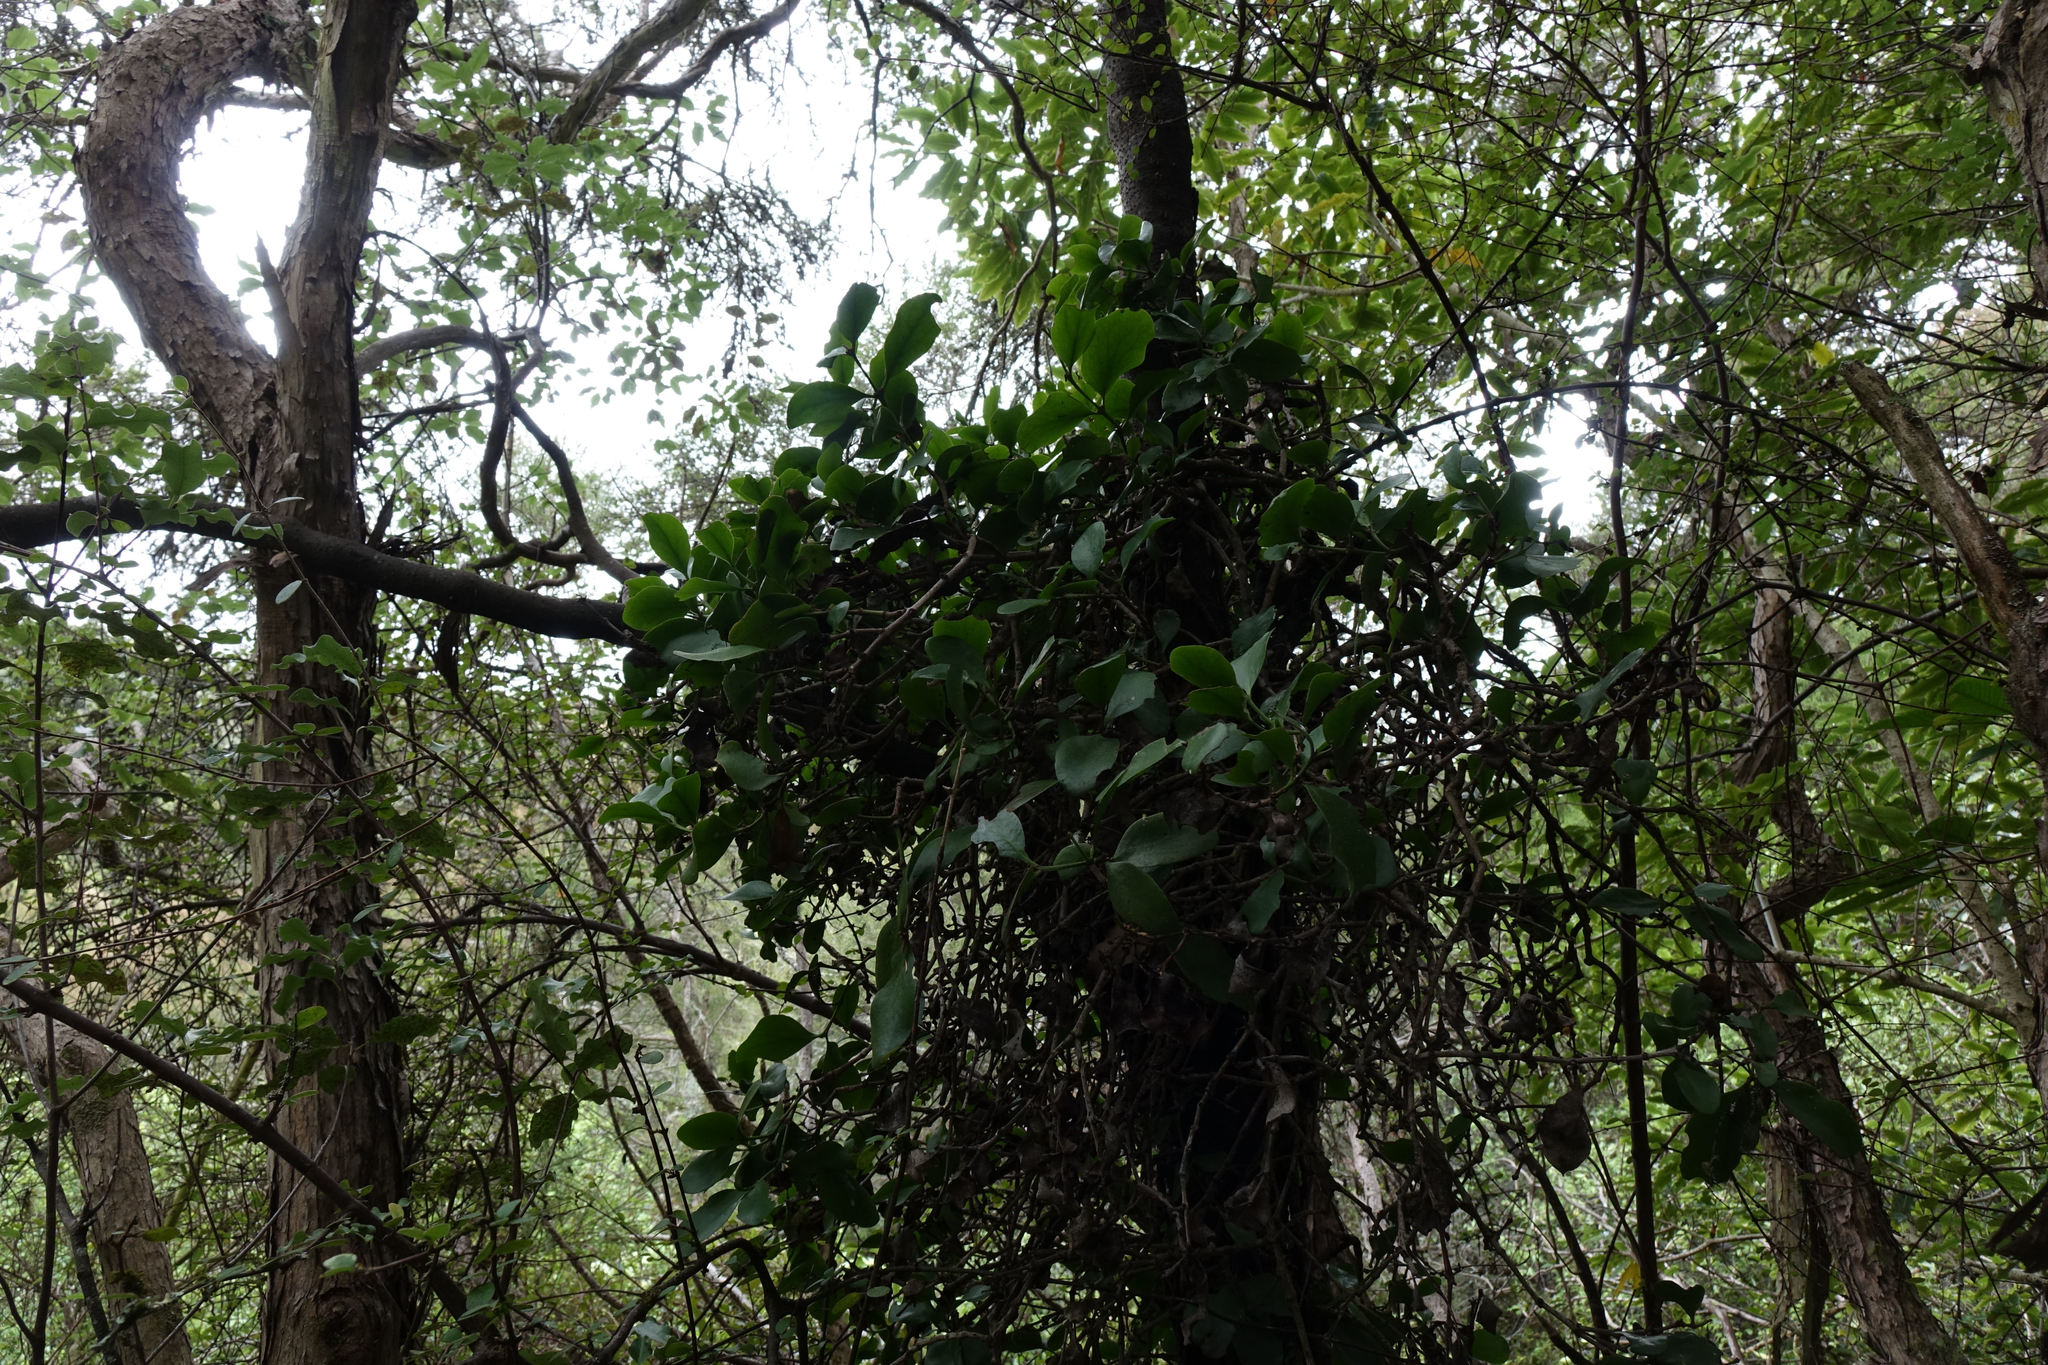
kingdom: Plantae
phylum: Tracheophyta
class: Magnoliopsida
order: Santalales
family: Loranthaceae
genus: Ileostylus
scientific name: Ileostylus micranthus
